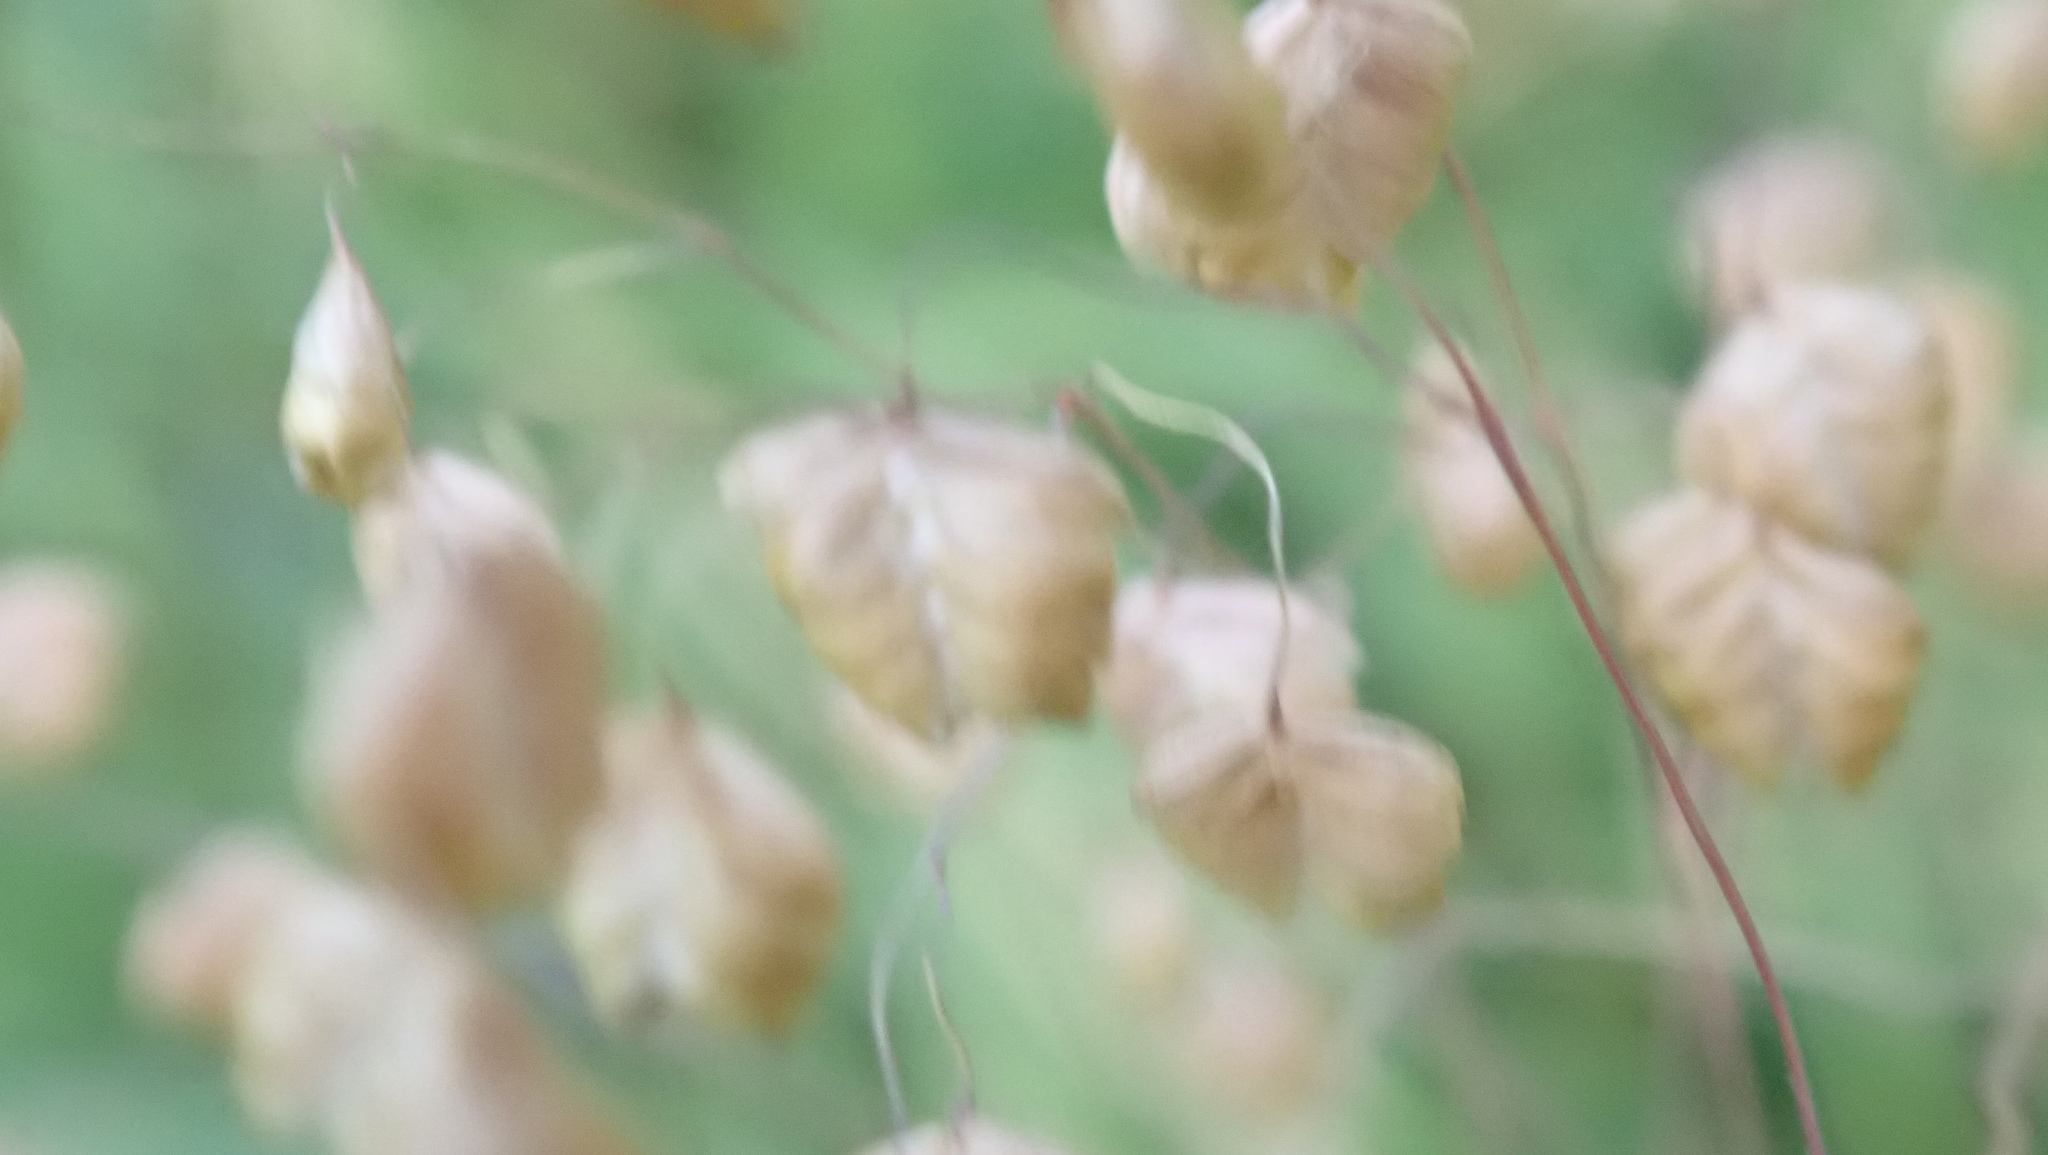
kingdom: Plantae
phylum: Tracheophyta
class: Liliopsida
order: Poales
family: Poaceae
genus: Briza
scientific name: Briza media
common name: Quaking grass
